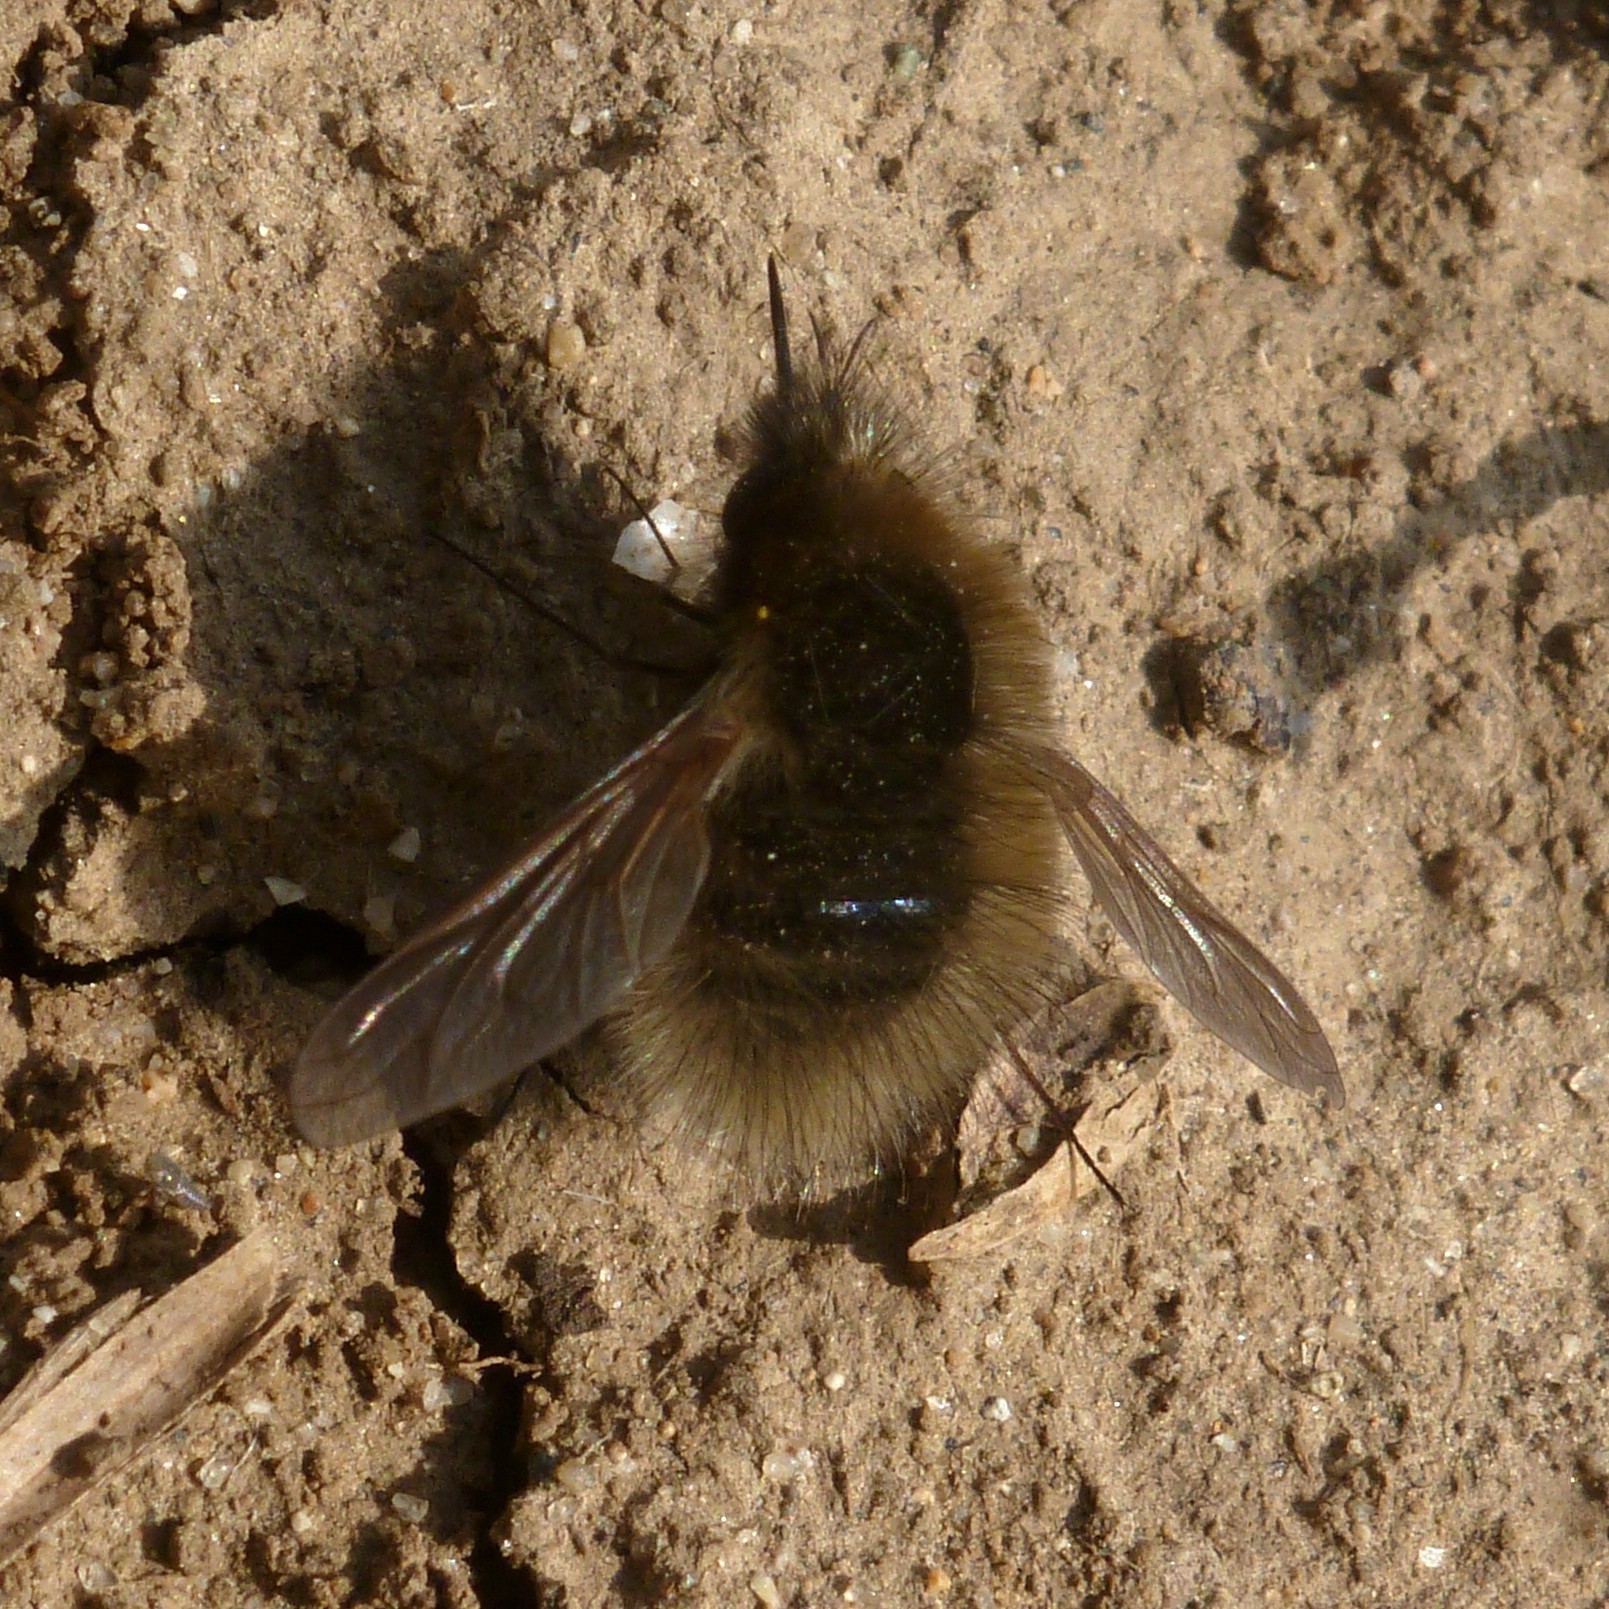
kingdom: Animalia
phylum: Arthropoda
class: Insecta
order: Diptera
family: Bombyliidae
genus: Bombylius
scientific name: Bombylius minor
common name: Heath bee-fly
